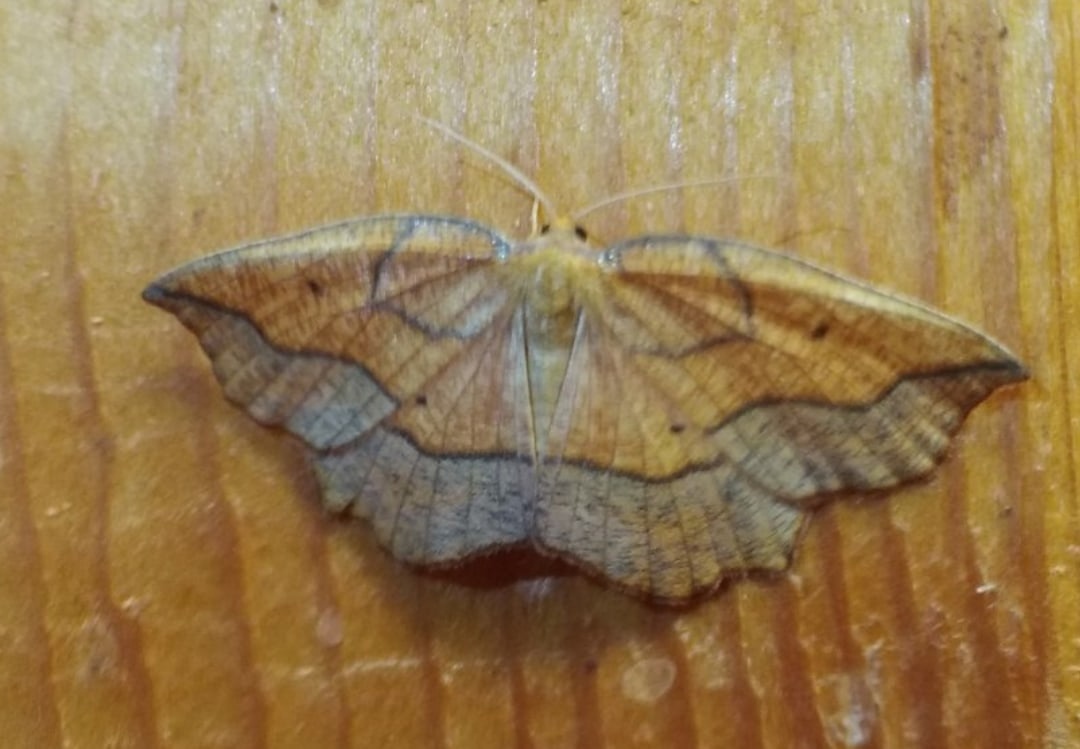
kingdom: Animalia
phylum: Arthropoda
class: Insecta
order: Lepidoptera
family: Geometridae
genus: Epione
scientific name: Epione repandaria
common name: Bordered beauty
